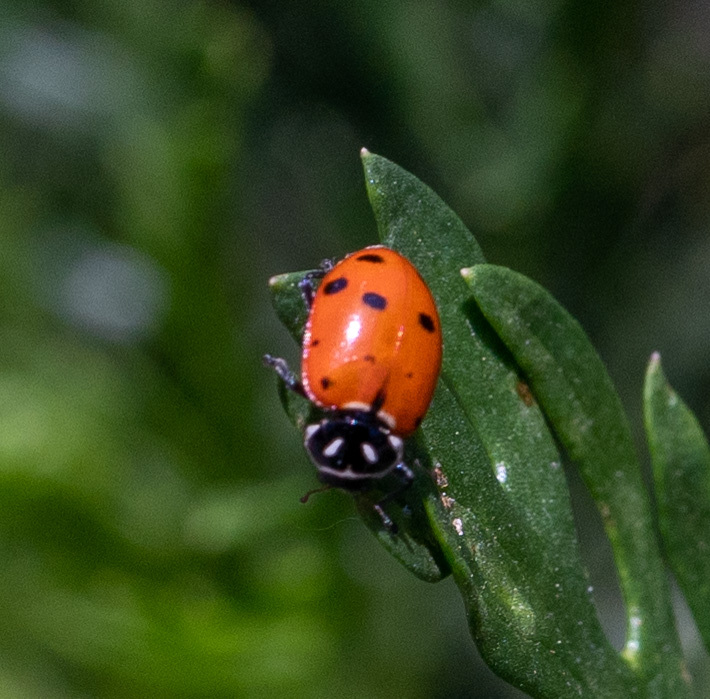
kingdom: Animalia
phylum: Arthropoda
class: Insecta
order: Coleoptera
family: Coccinellidae
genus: Hippodamia
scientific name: Hippodamia convergens
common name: Convergent lady beetle
